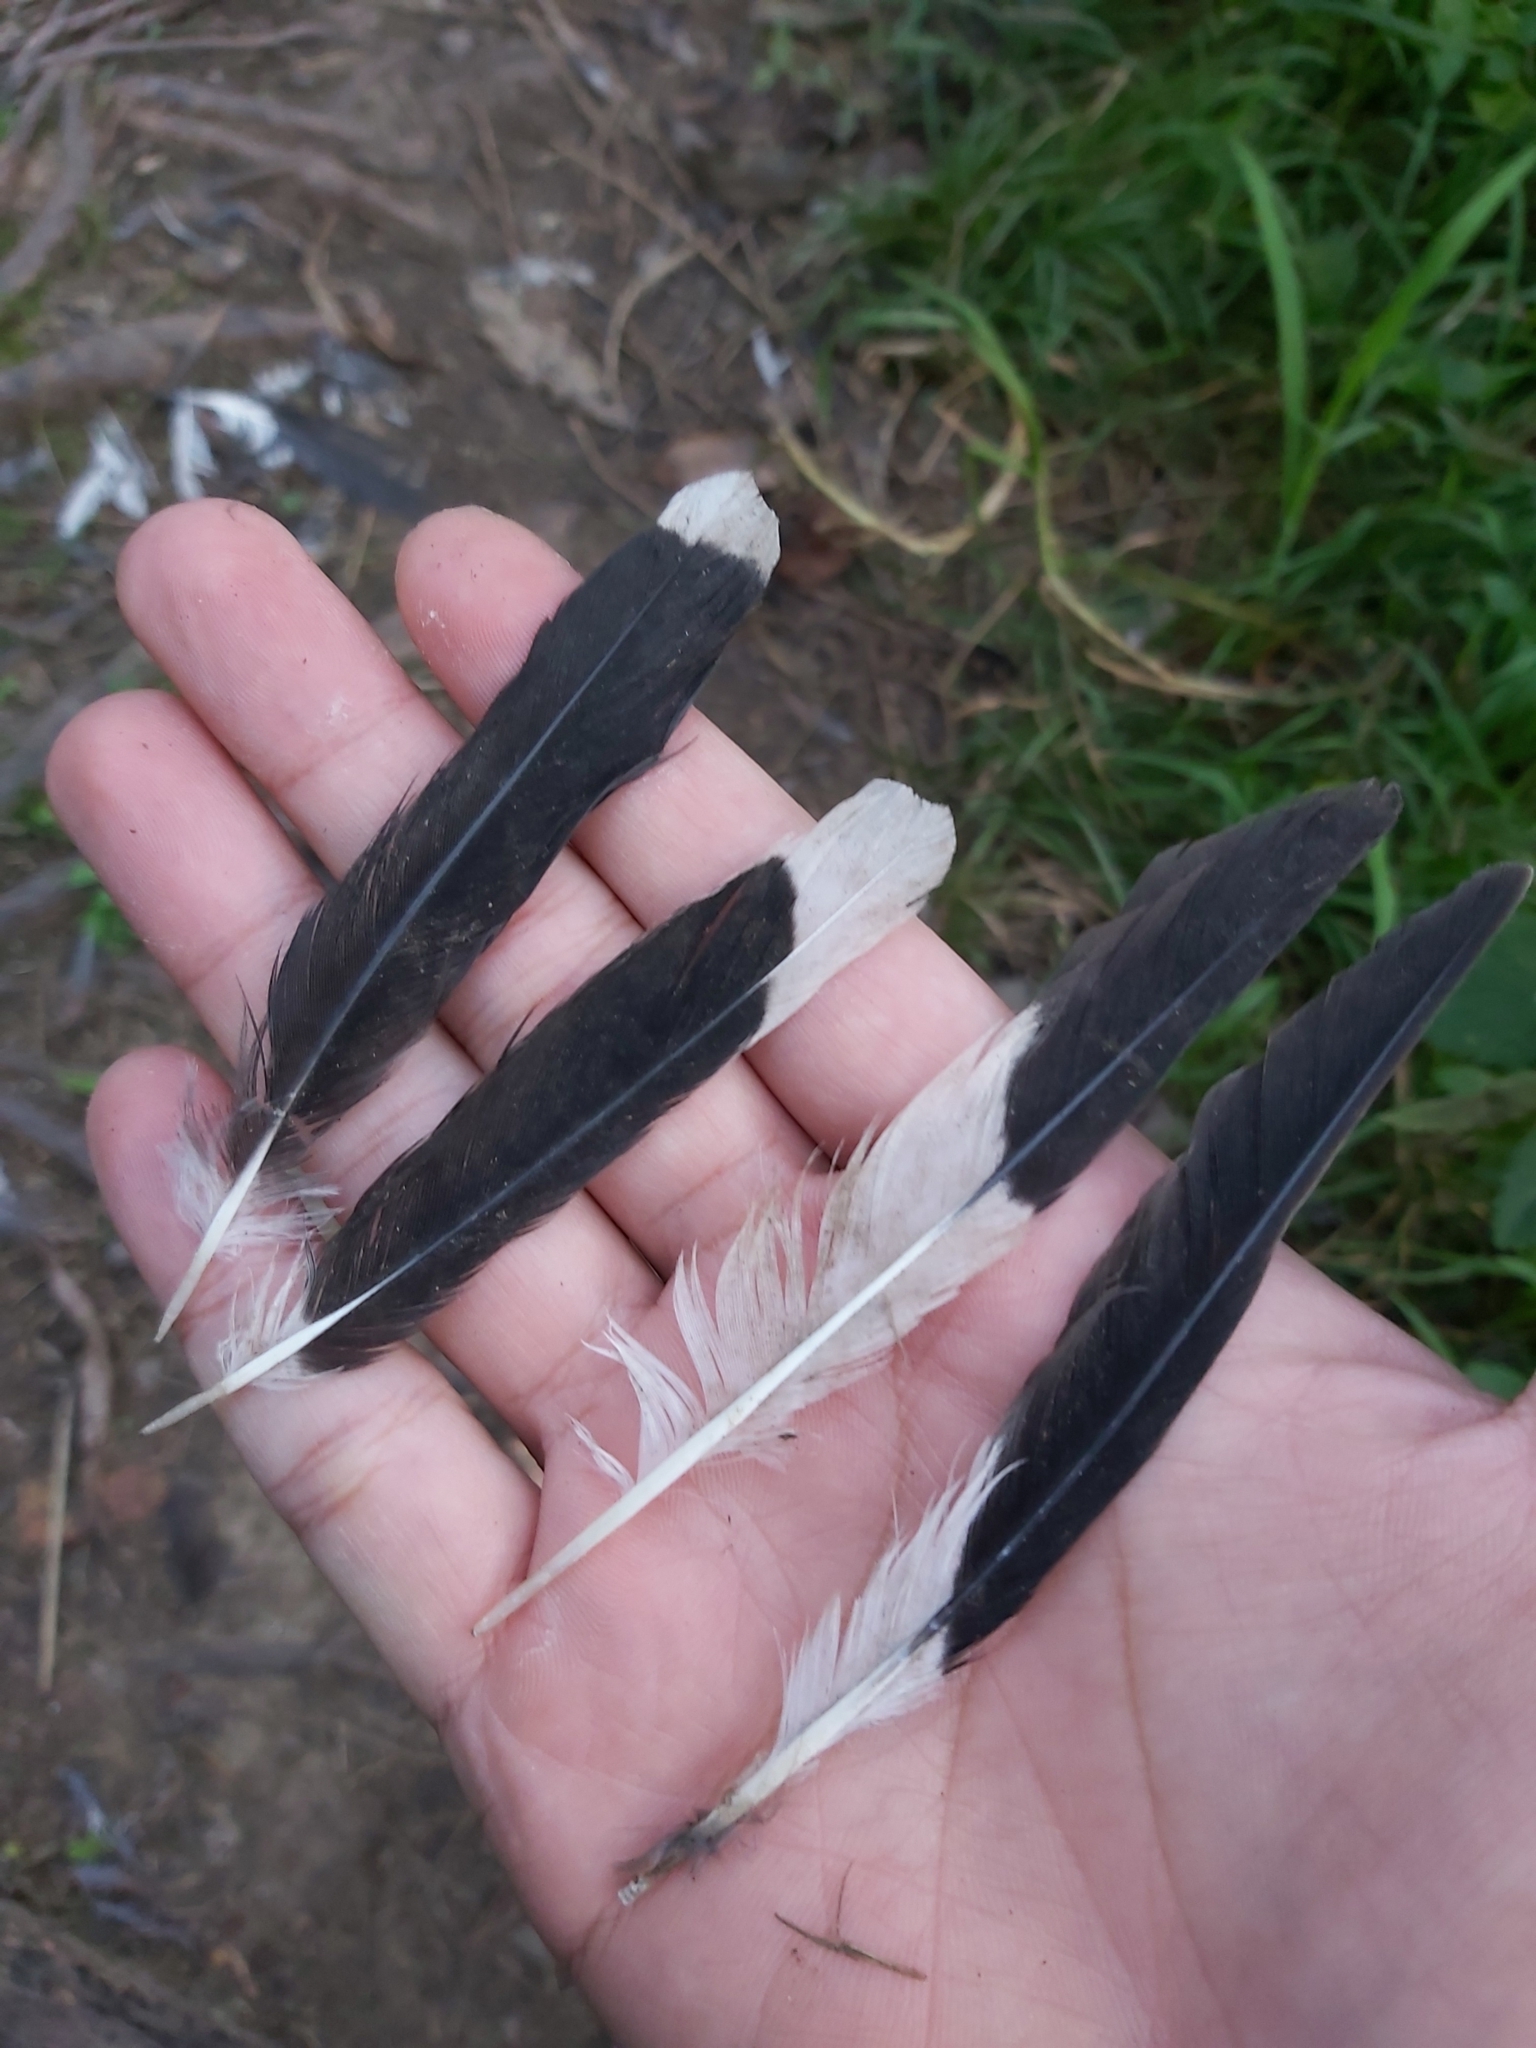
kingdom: Animalia
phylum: Chordata
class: Aves
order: Passeriformes
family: Sturnidae
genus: Acridotheres
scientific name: Acridotheres tristis
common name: Common myna
